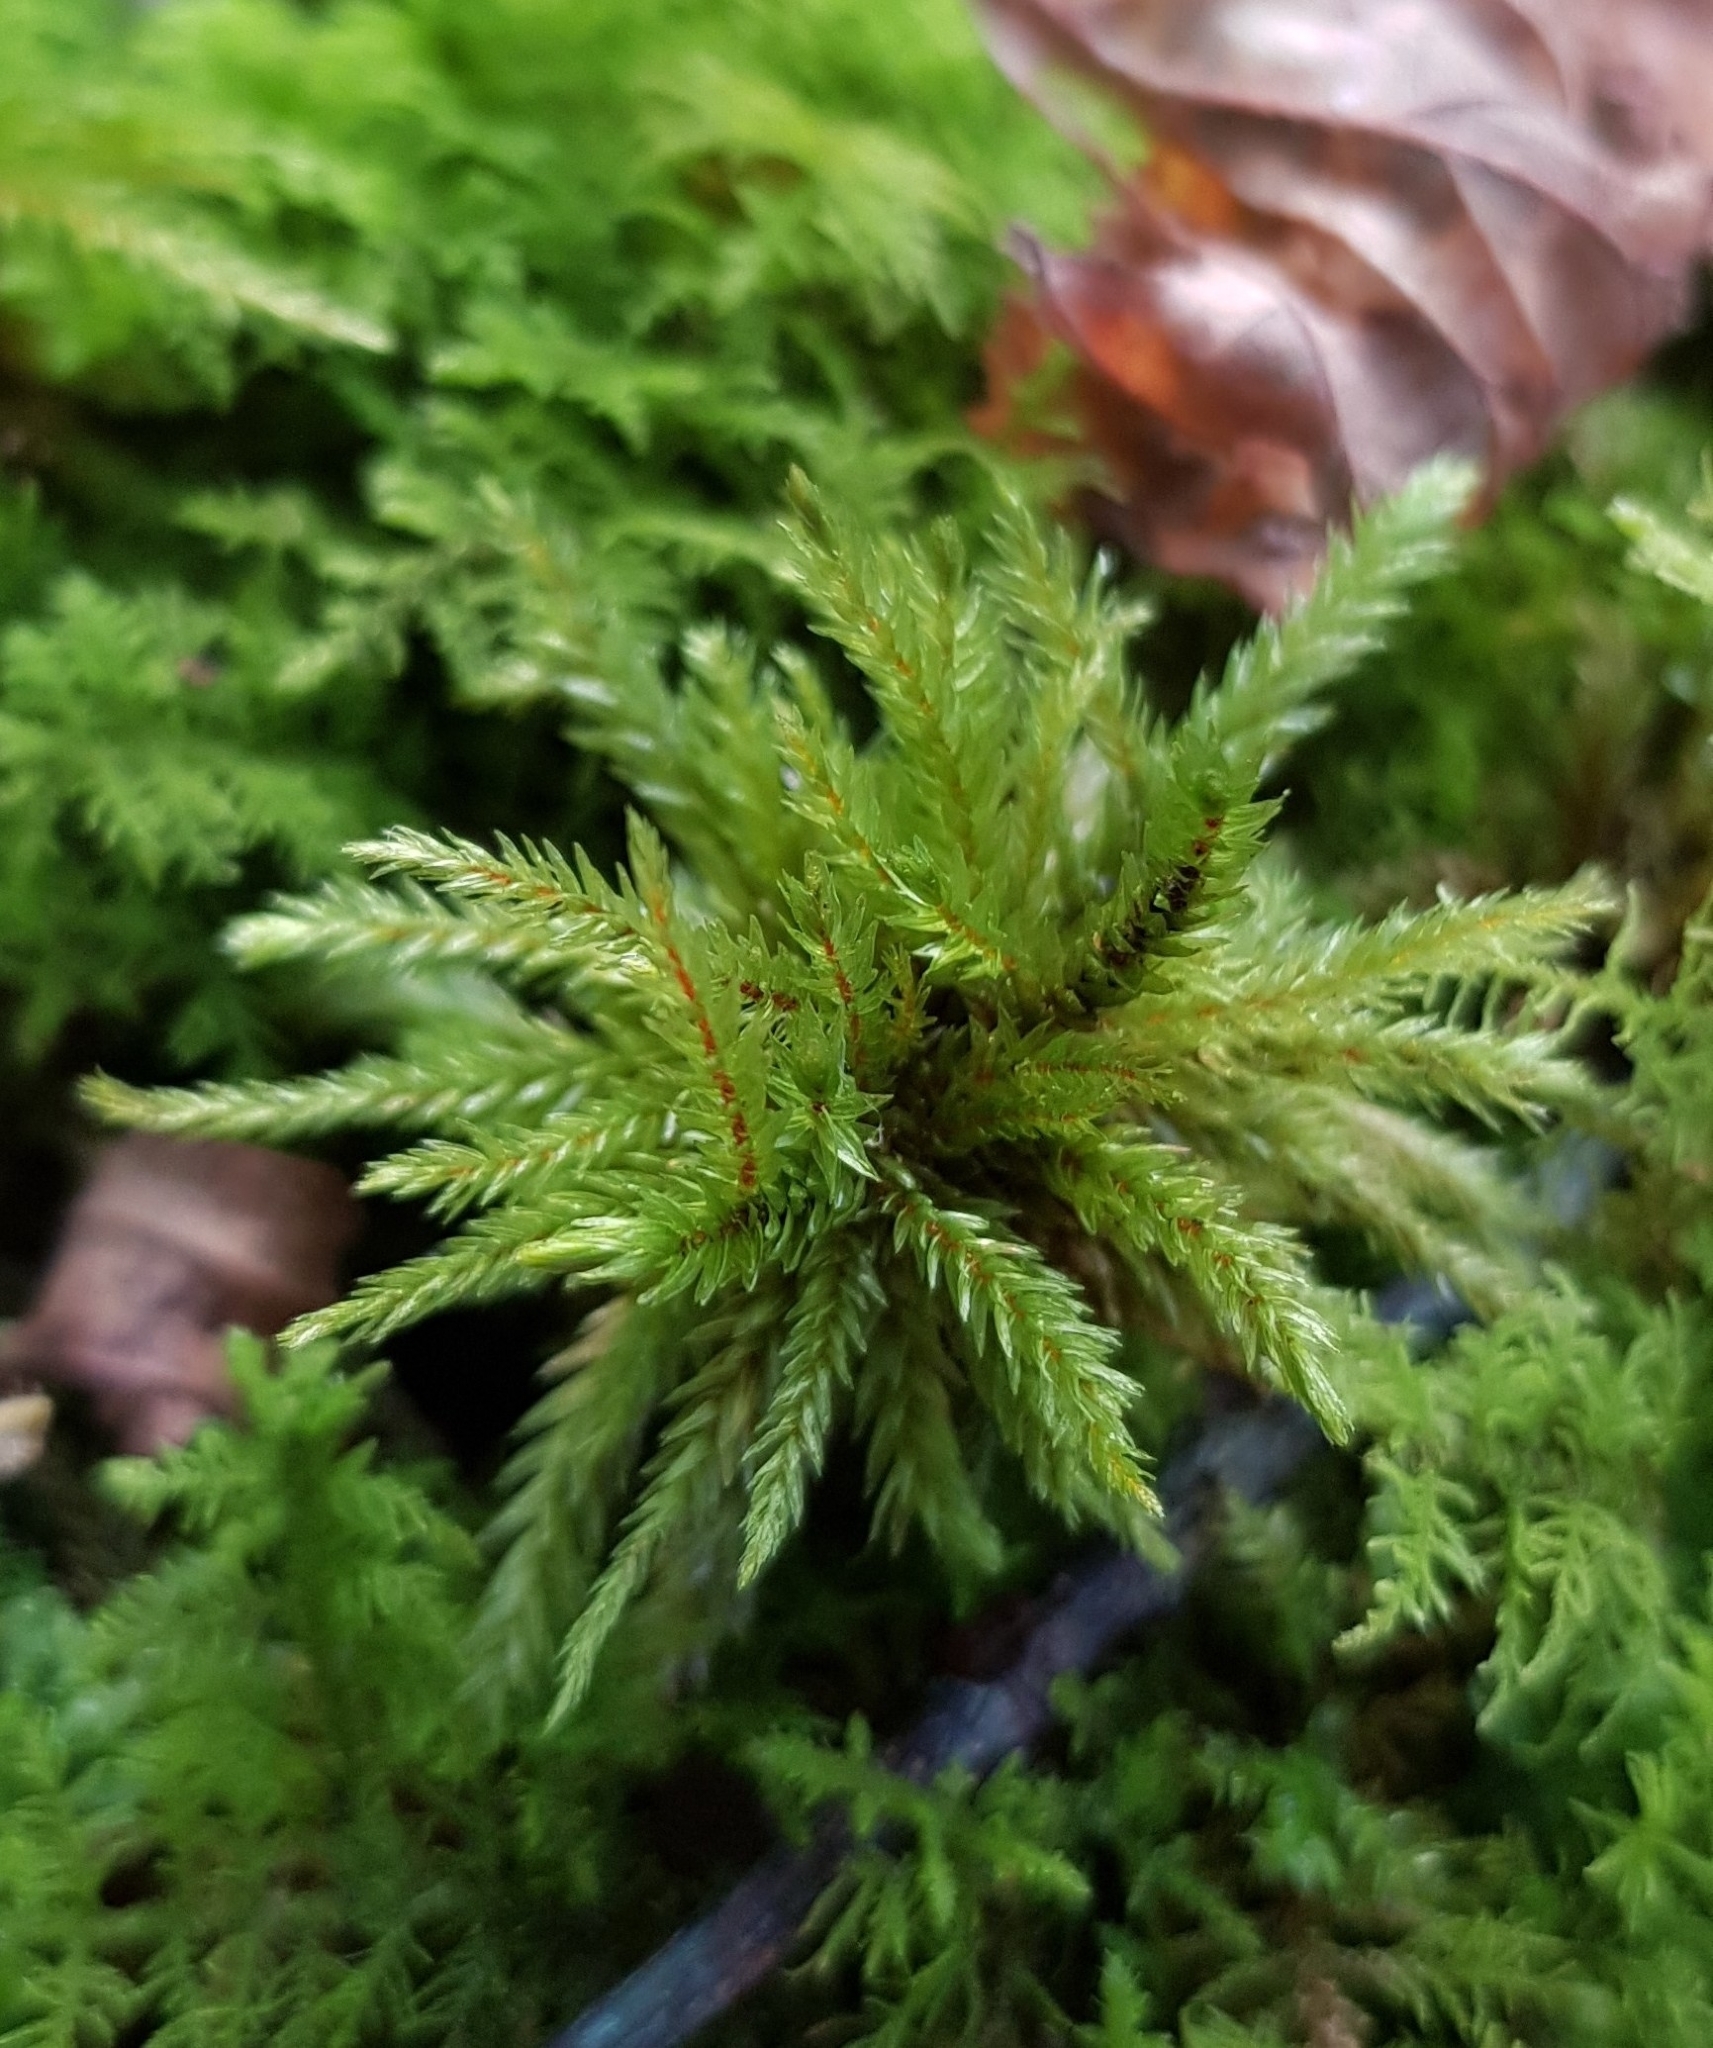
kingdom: Plantae
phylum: Bryophyta
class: Bryopsida
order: Hypnales
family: Climaciaceae
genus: Climacium
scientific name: Climacium dendroides
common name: Northern tree moss
